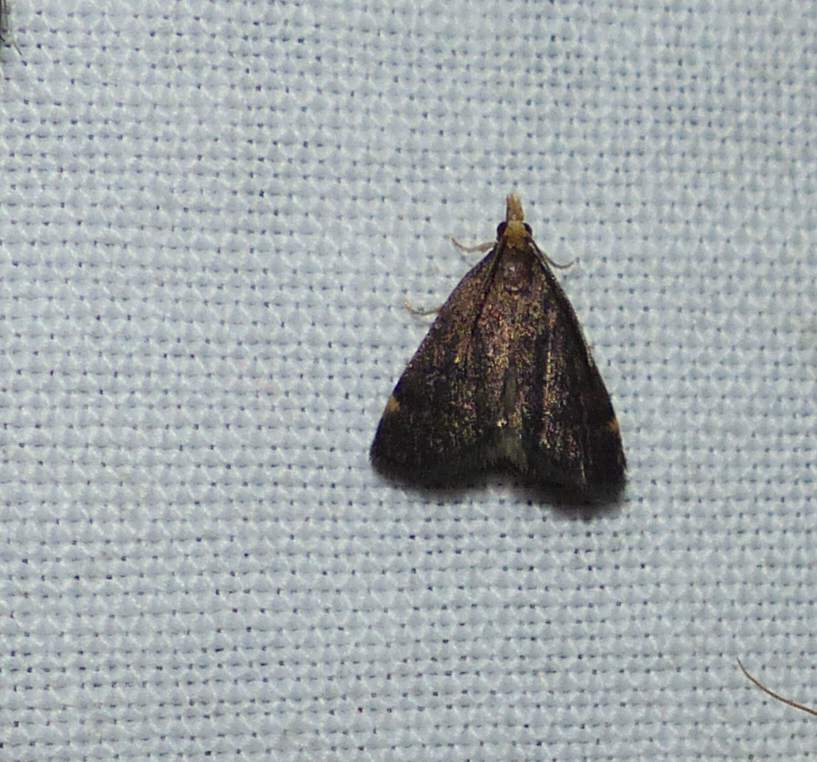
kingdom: Animalia
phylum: Arthropoda
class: Insecta
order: Lepidoptera
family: Crambidae
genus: Pyrausta
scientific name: Pyrausta merrickalis
